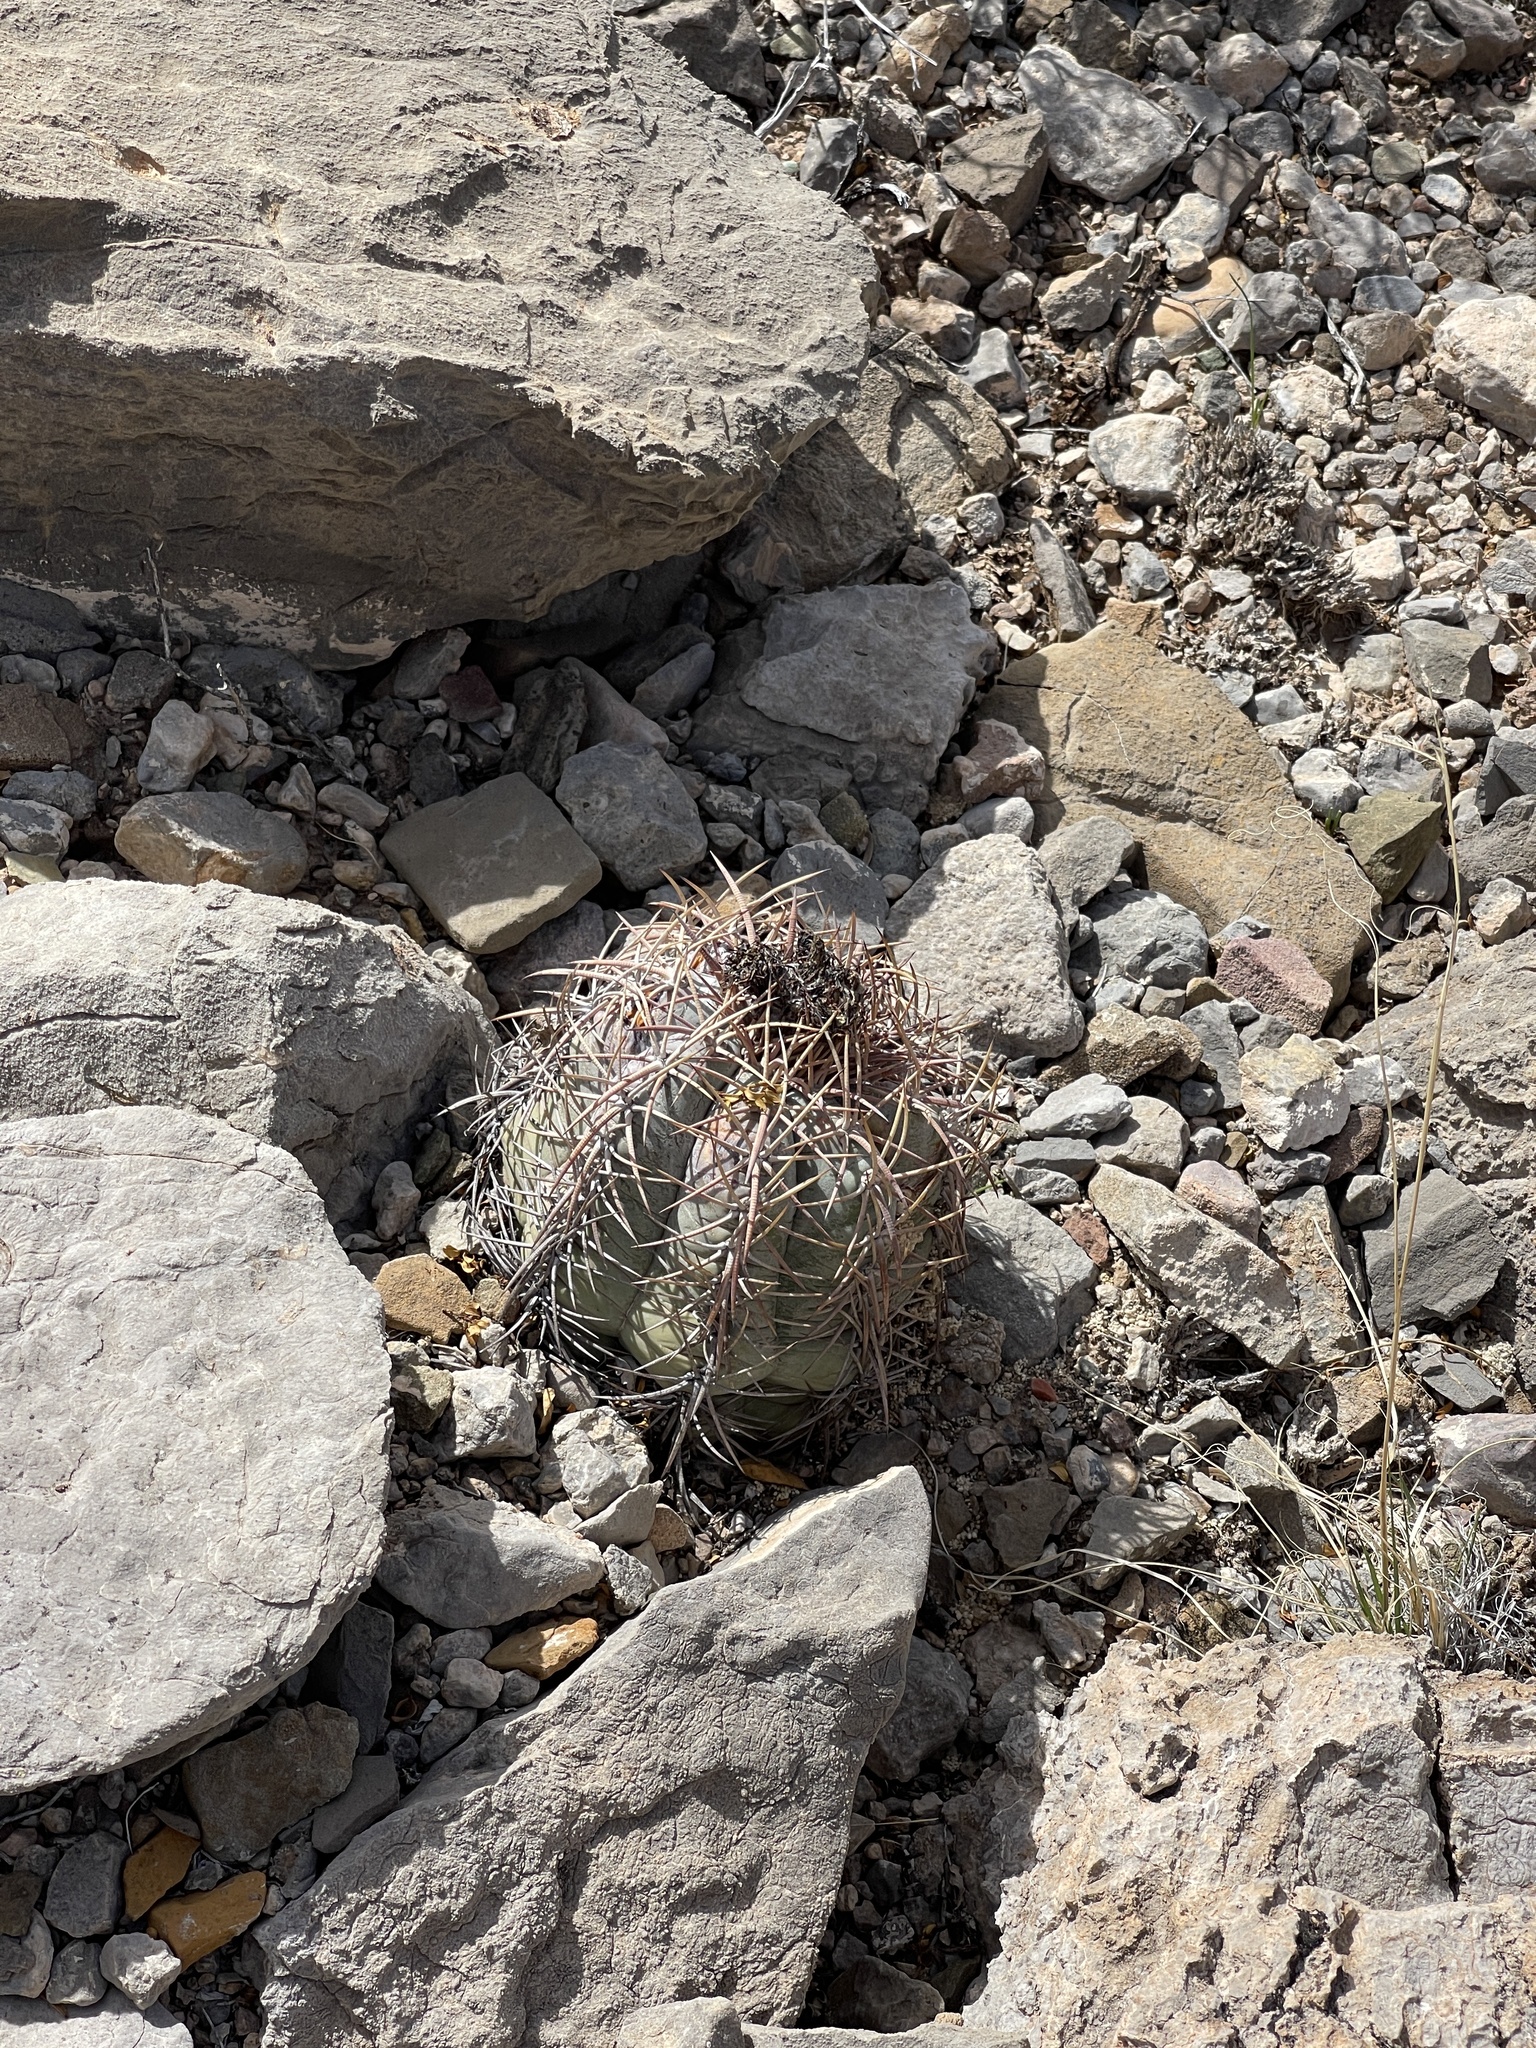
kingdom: Plantae
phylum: Tracheophyta
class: Magnoliopsida
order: Caryophyllales
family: Cactaceae
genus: Echinocactus
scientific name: Echinocactus horizonthalonius
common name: Devilshead
